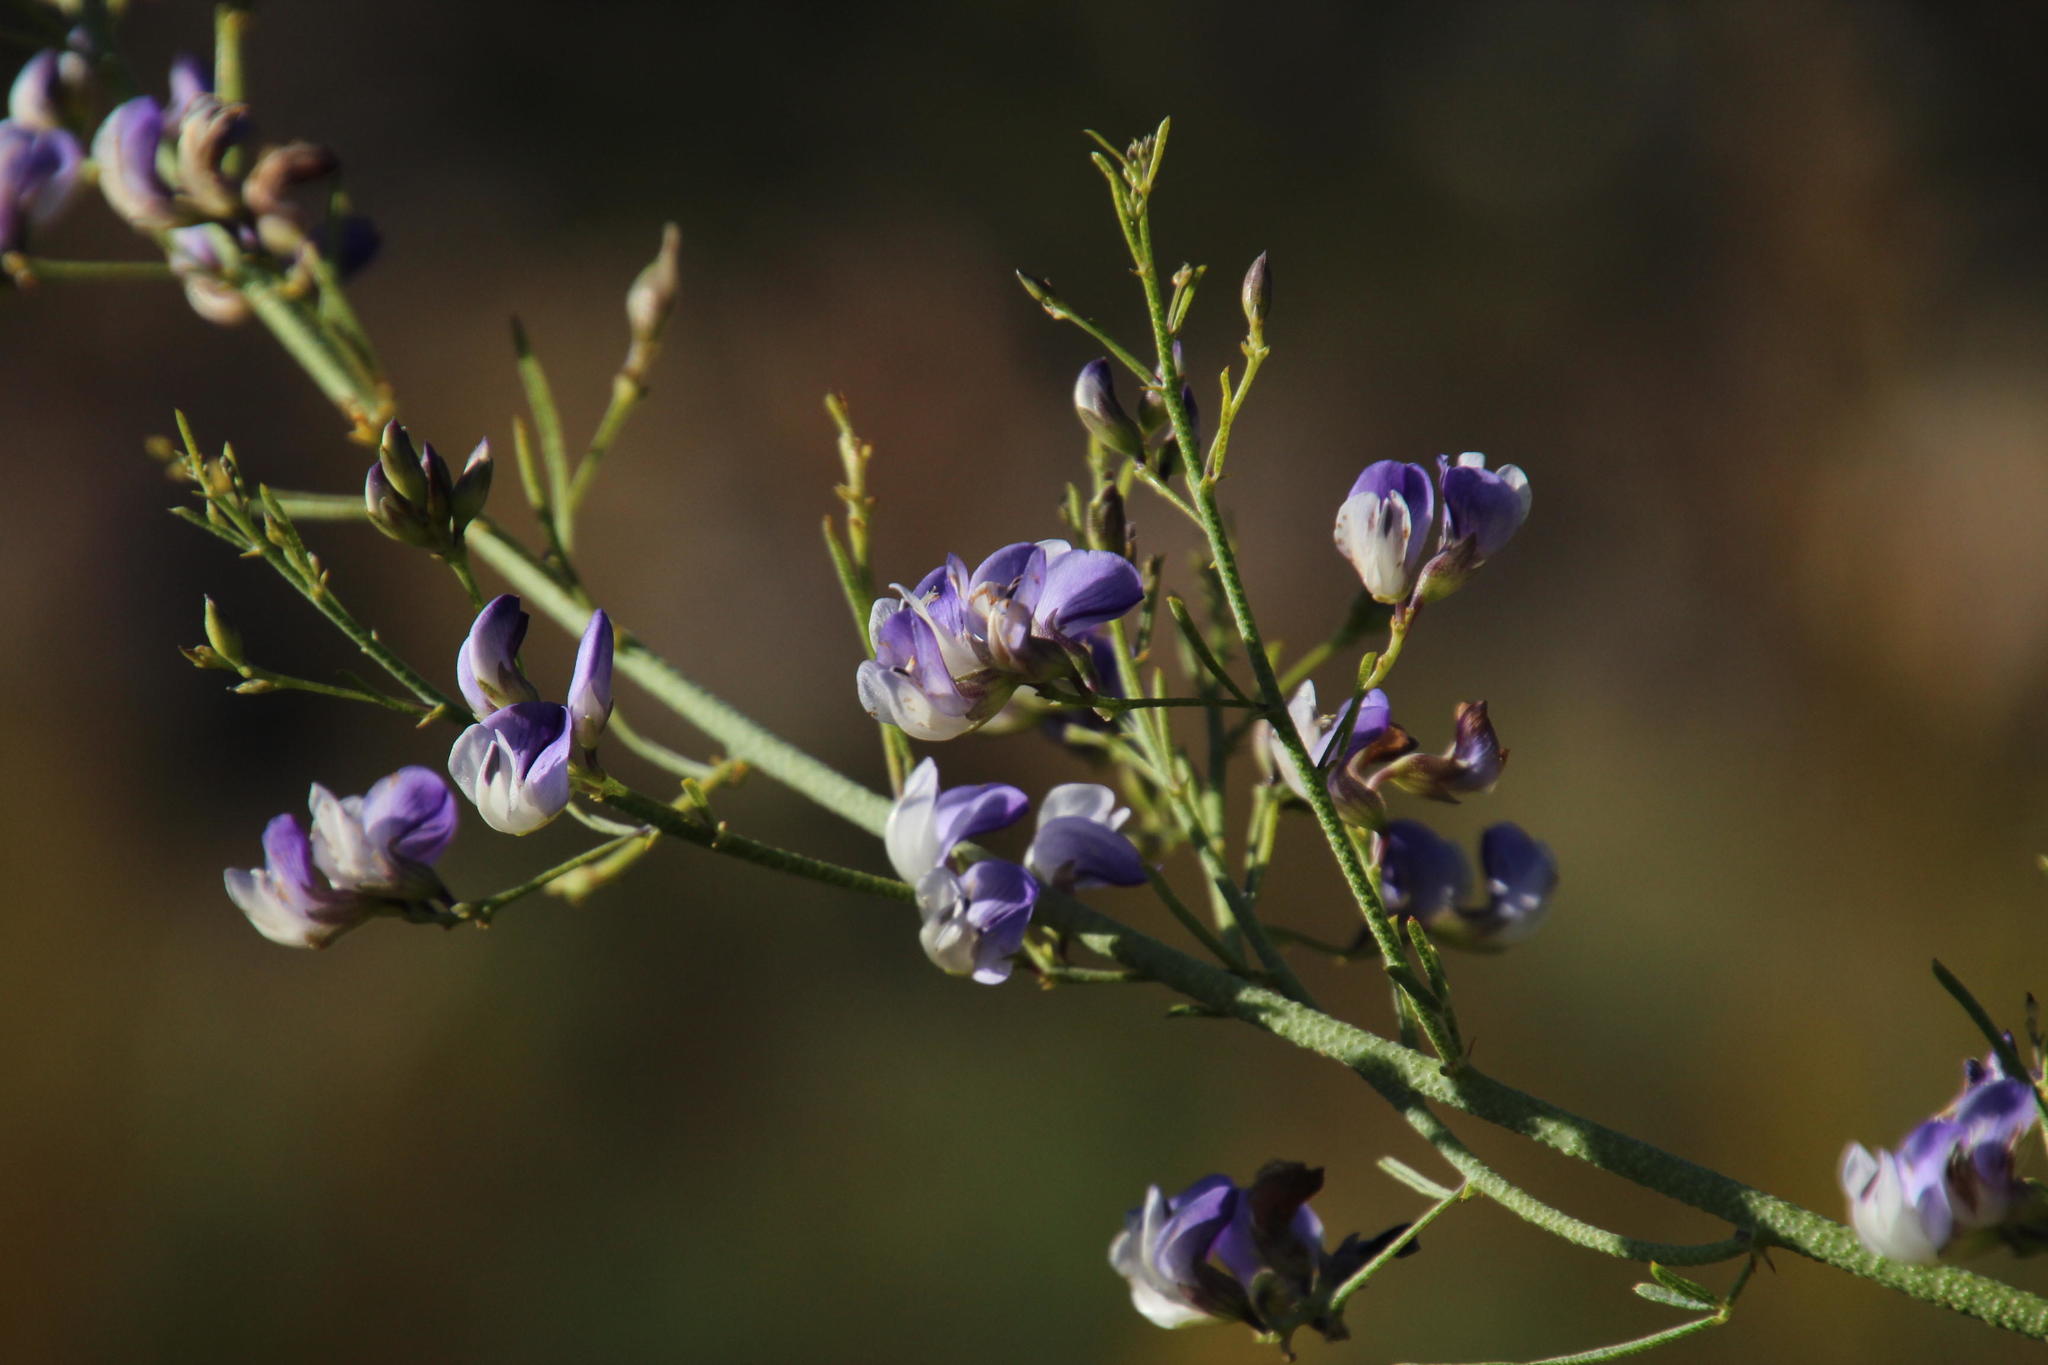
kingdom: Plantae
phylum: Tracheophyta
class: Magnoliopsida
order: Fabales
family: Fabaceae
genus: Psoralea
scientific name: Psoralea verrucosa
